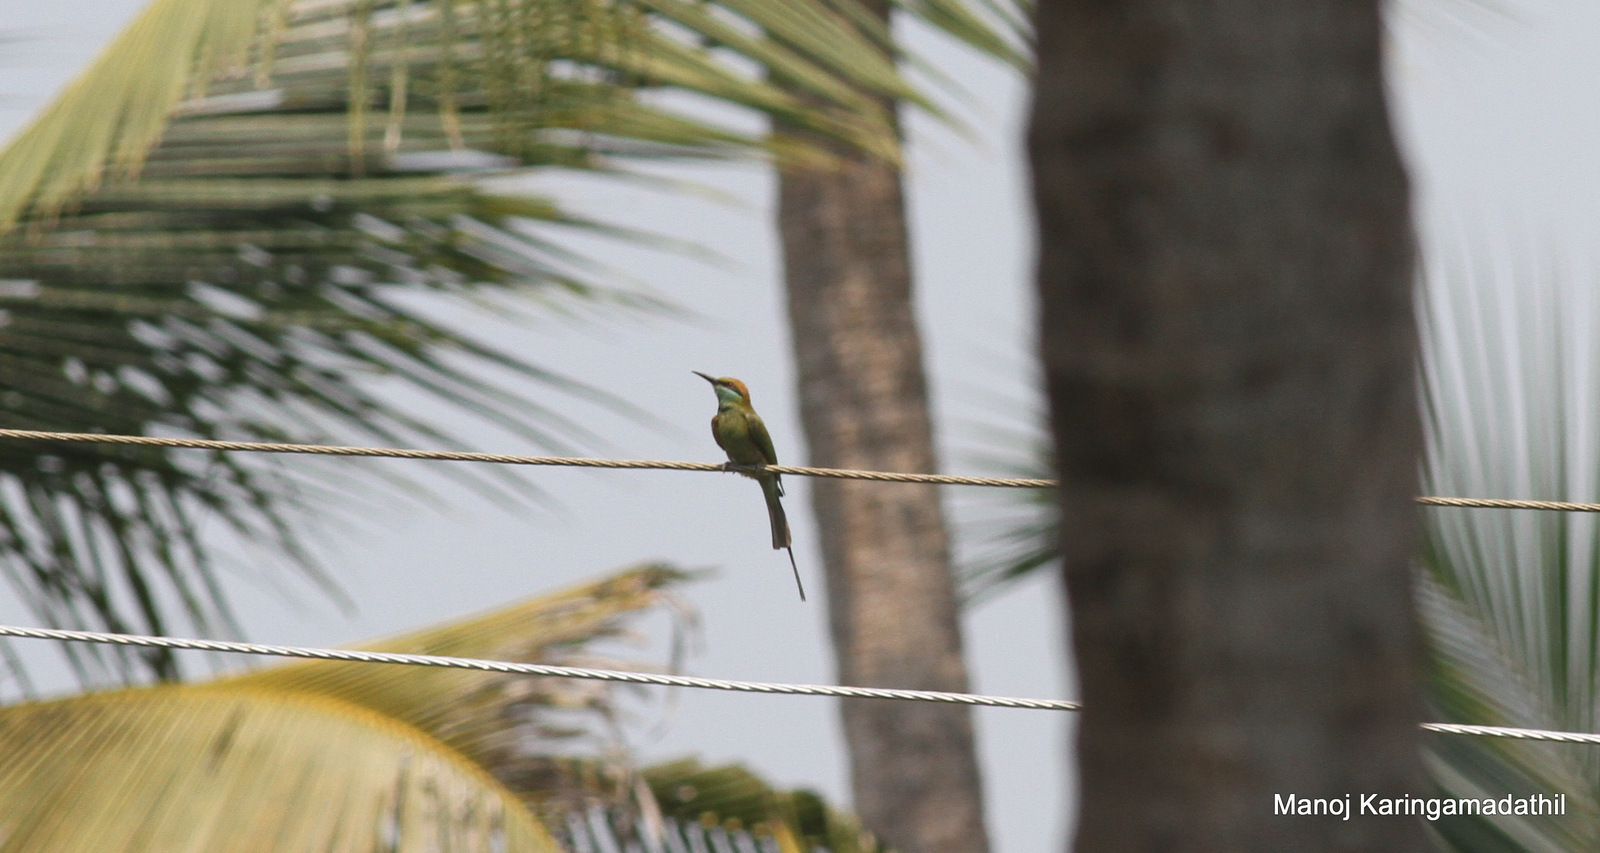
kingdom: Animalia
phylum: Chordata
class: Aves
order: Coraciiformes
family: Meropidae
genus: Merops
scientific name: Merops orientalis
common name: Green bee-eater
